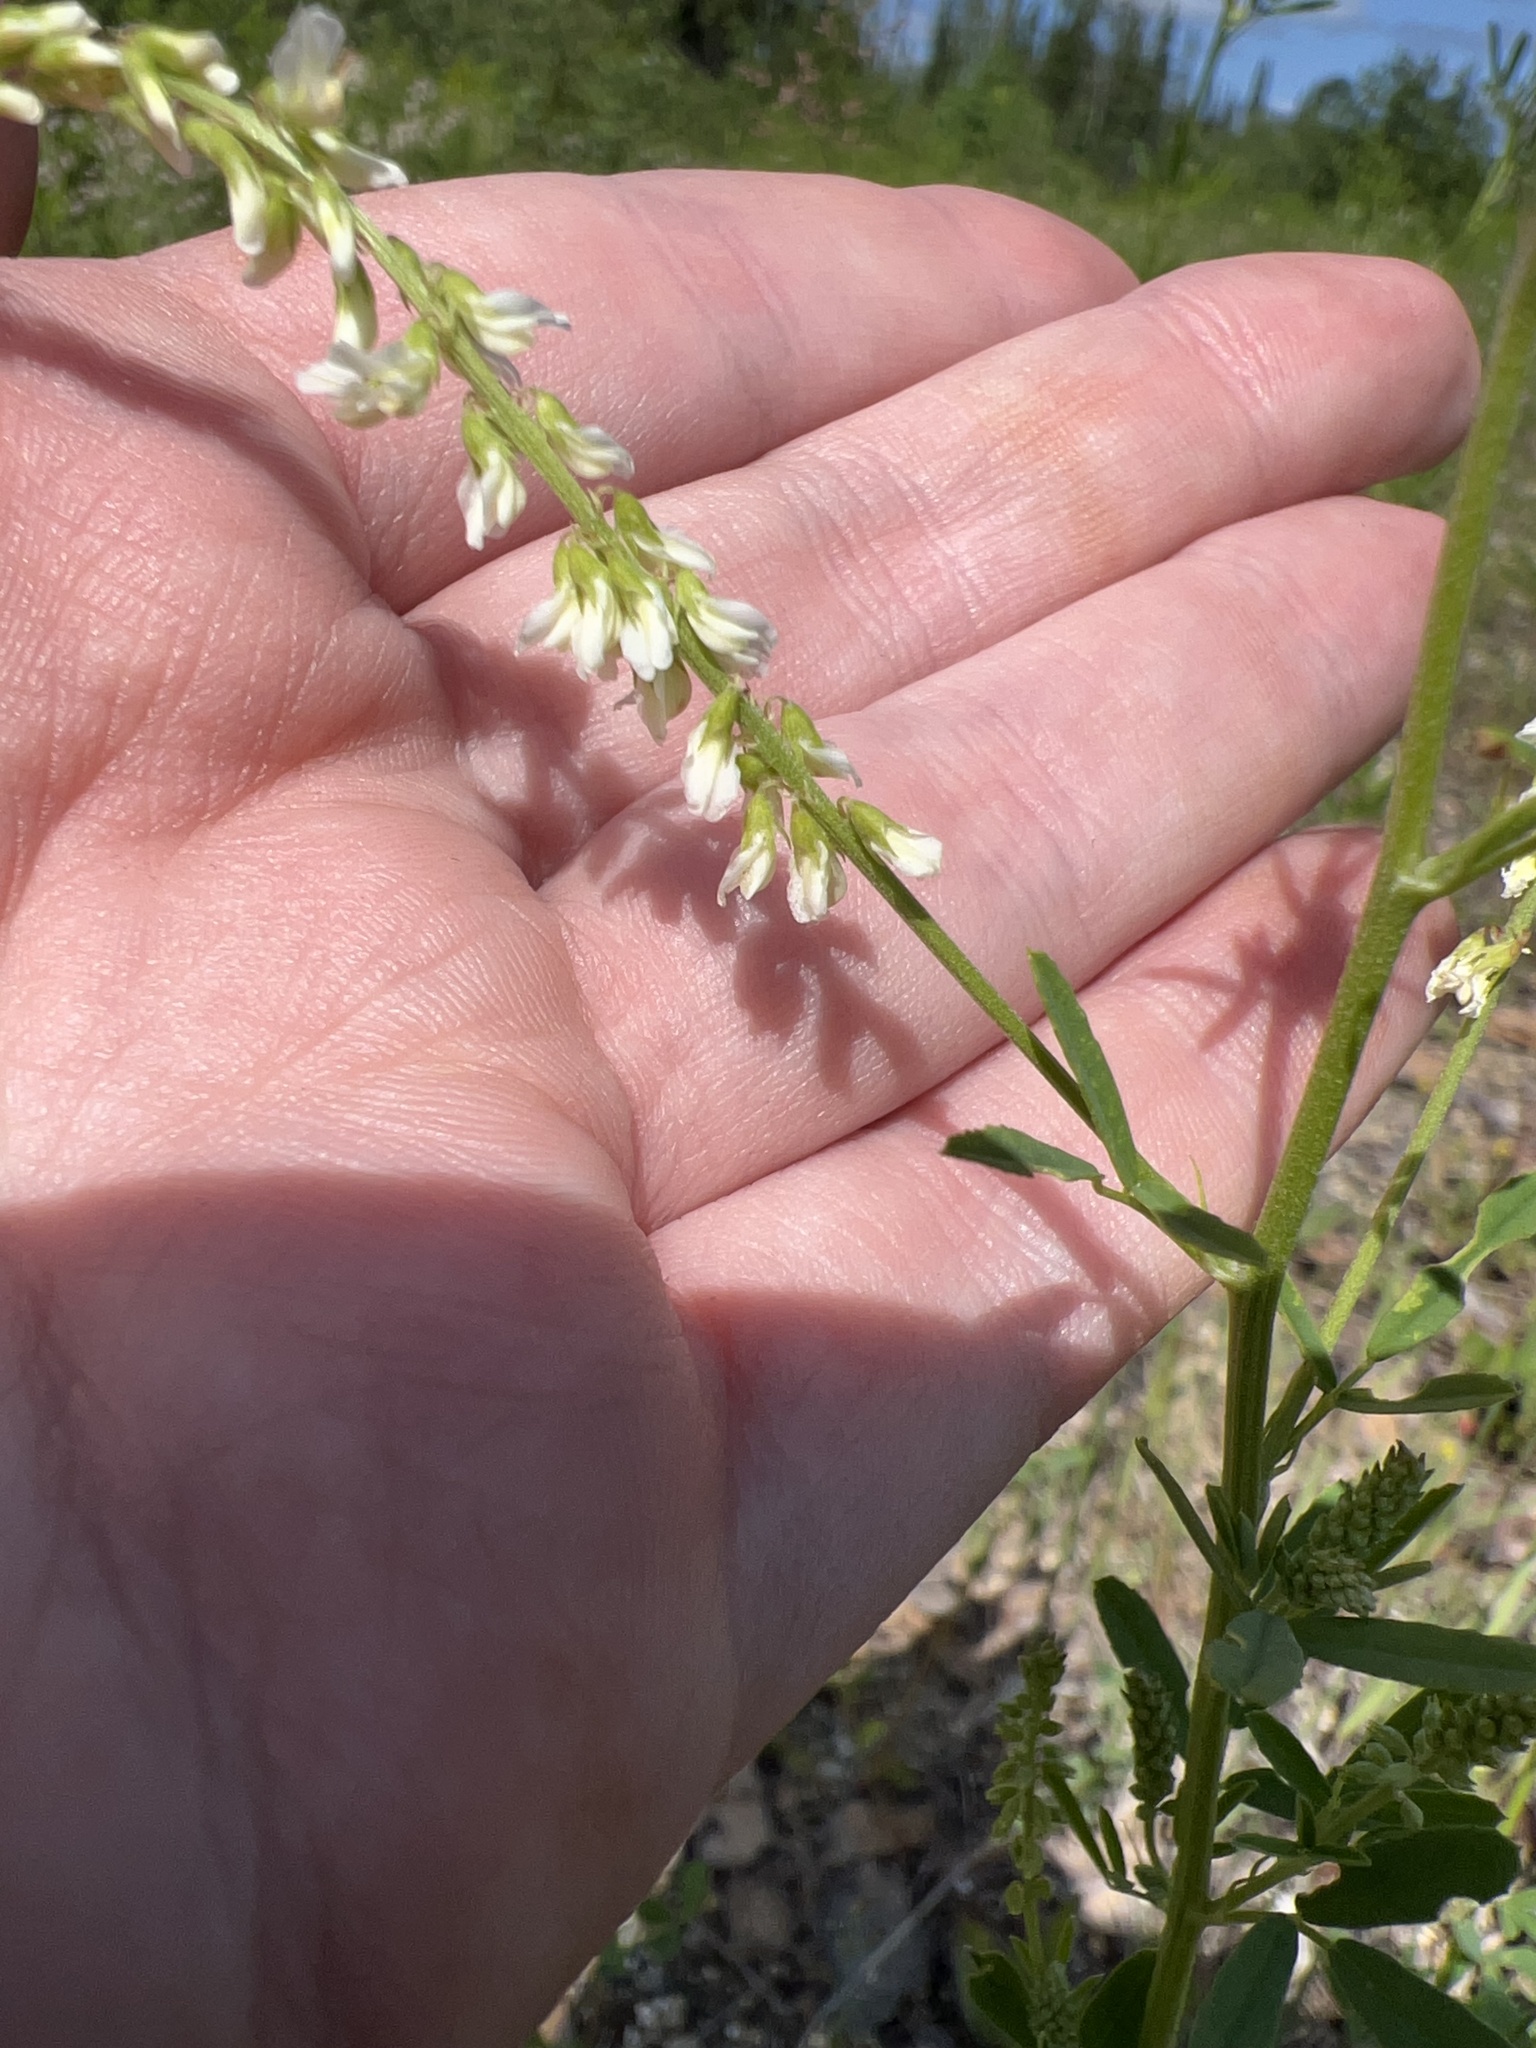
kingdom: Plantae
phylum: Tracheophyta
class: Magnoliopsida
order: Fabales
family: Fabaceae
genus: Melilotus
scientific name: Melilotus albus
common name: White melilot
